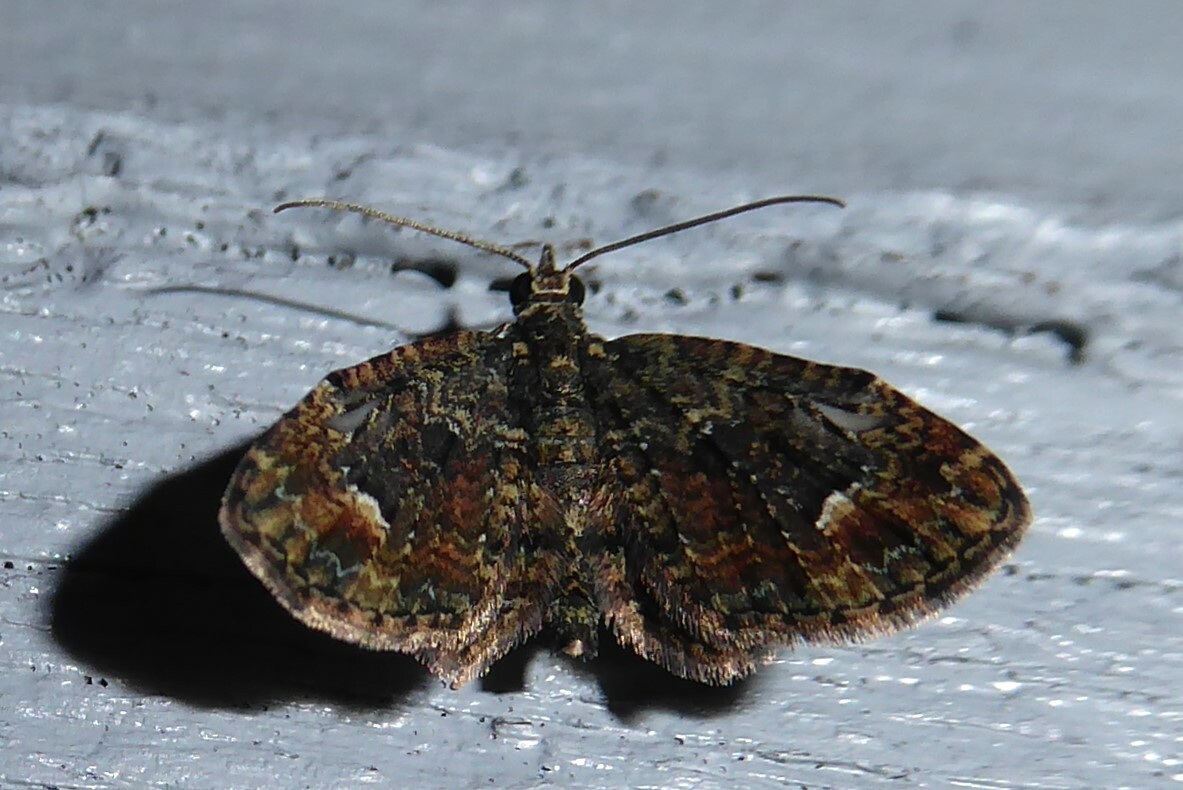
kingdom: Animalia
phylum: Arthropoda
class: Insecta
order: Lepidoptera
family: Geometridae
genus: Pasiphilodes
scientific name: Pasiphilodes testulata
